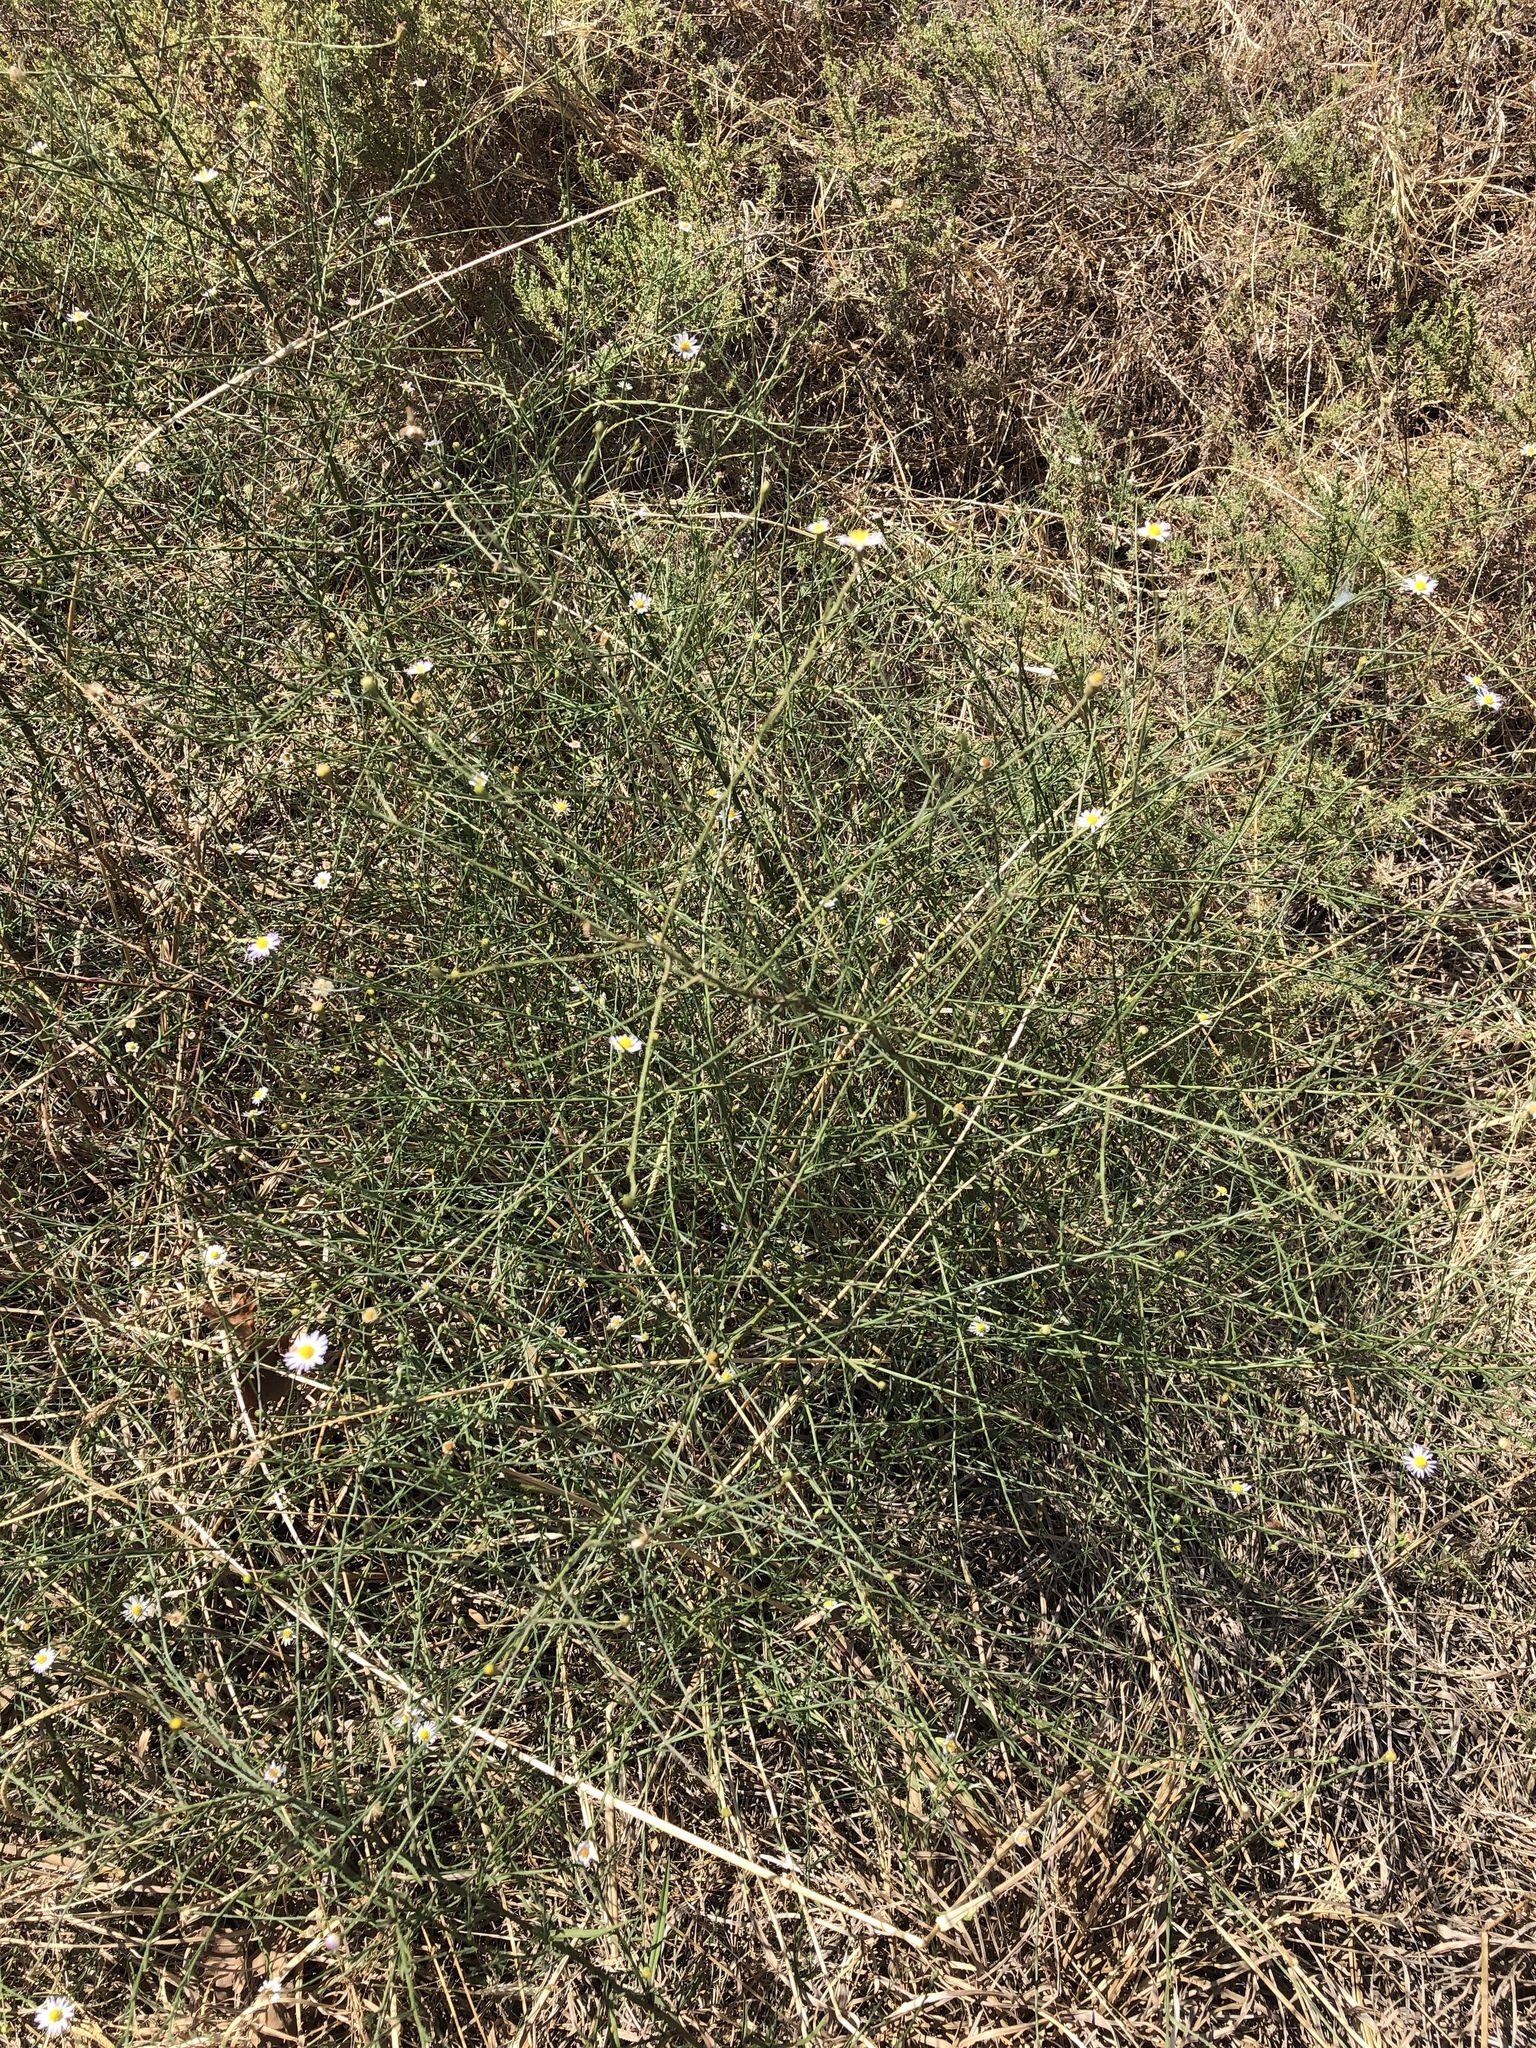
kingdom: Plantae
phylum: Tracheophyta
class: Magnoliopsida
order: Asterales
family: Asteraceae
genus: Symphyotrichum
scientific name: Symphyotrichum divaricatum
